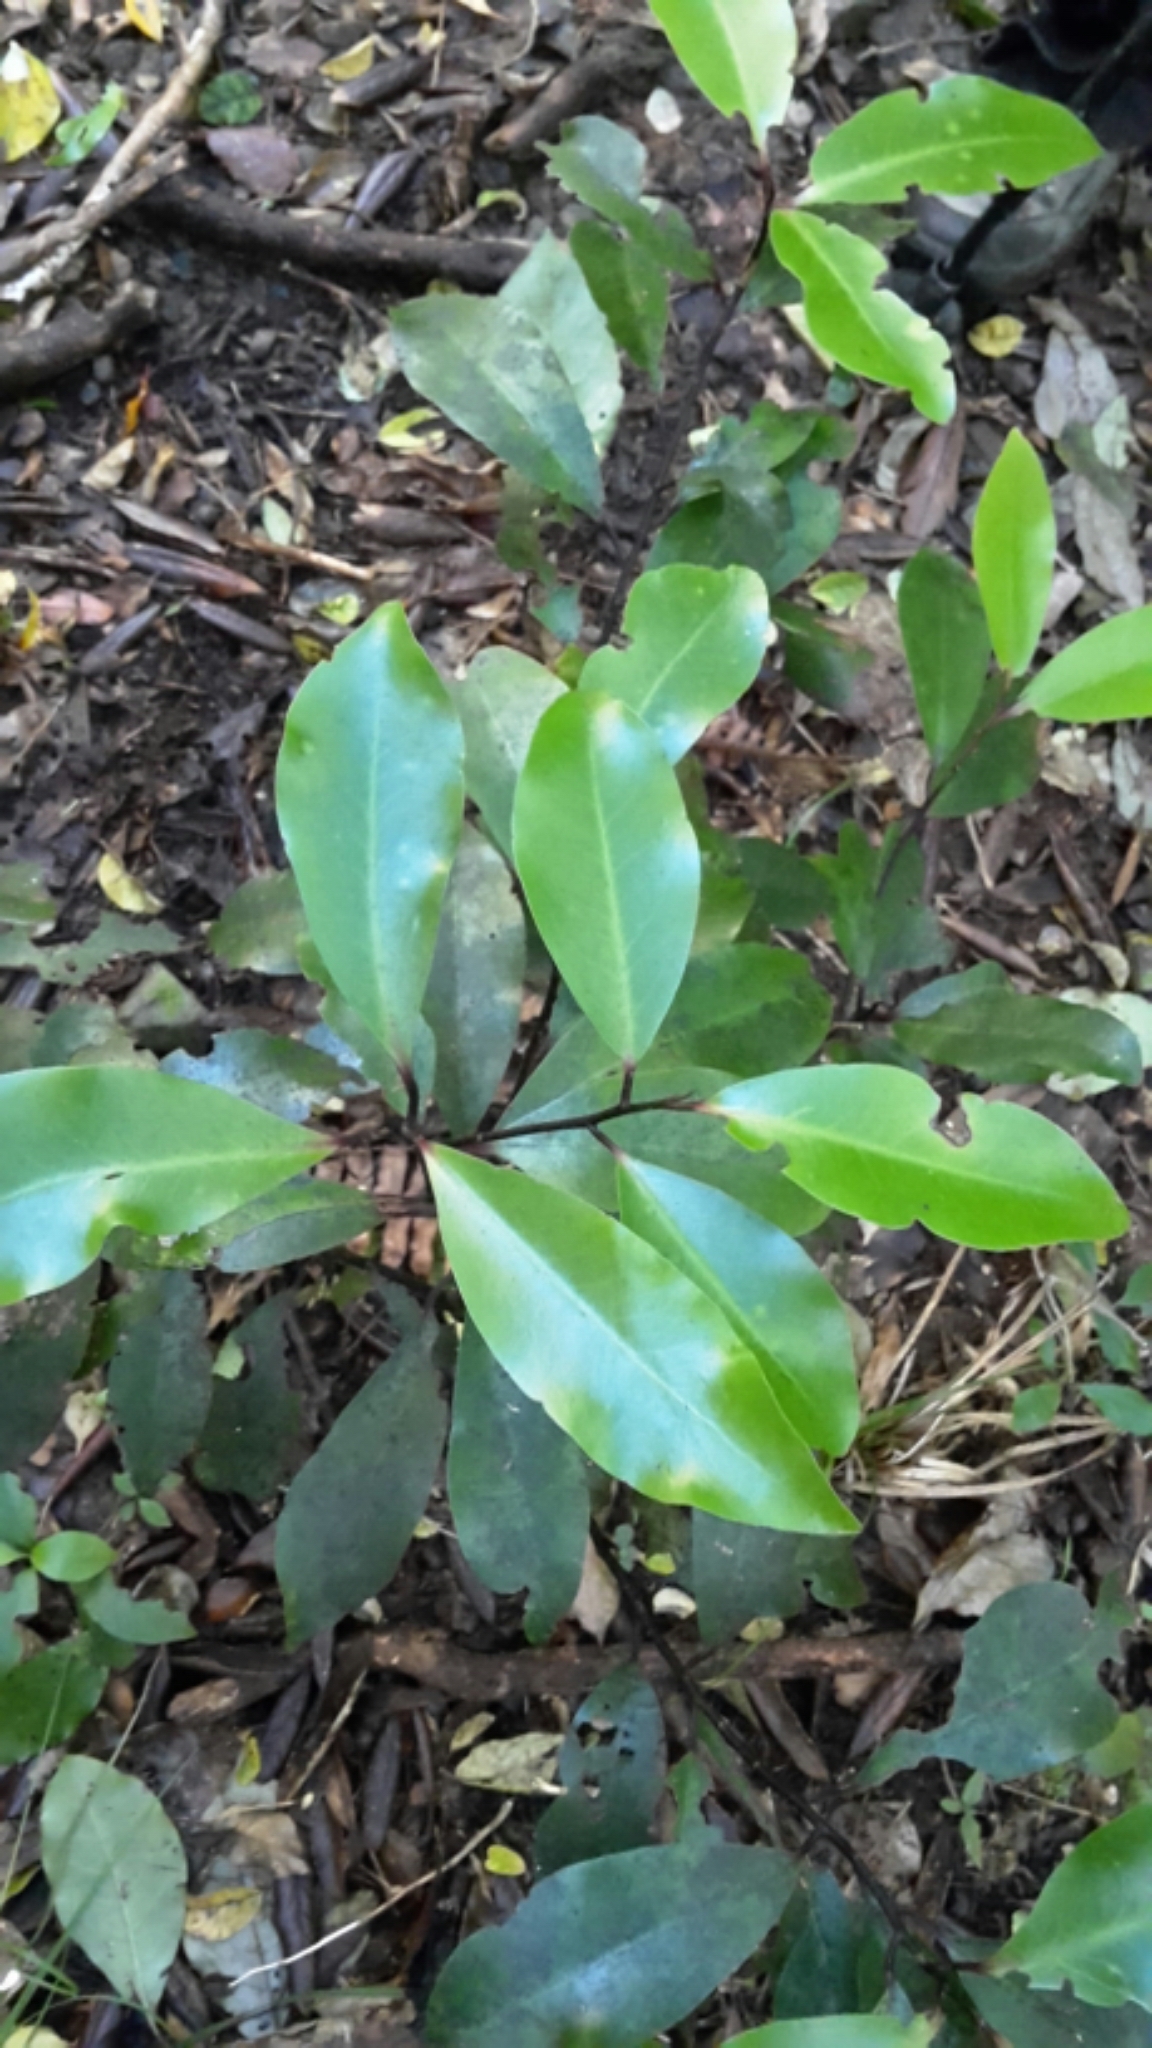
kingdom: Plantae
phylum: Tracheophyta
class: Magnoliopsida
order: Canellales
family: Winteraceae
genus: Pseudowintera
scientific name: Pseudowintera axillaris
